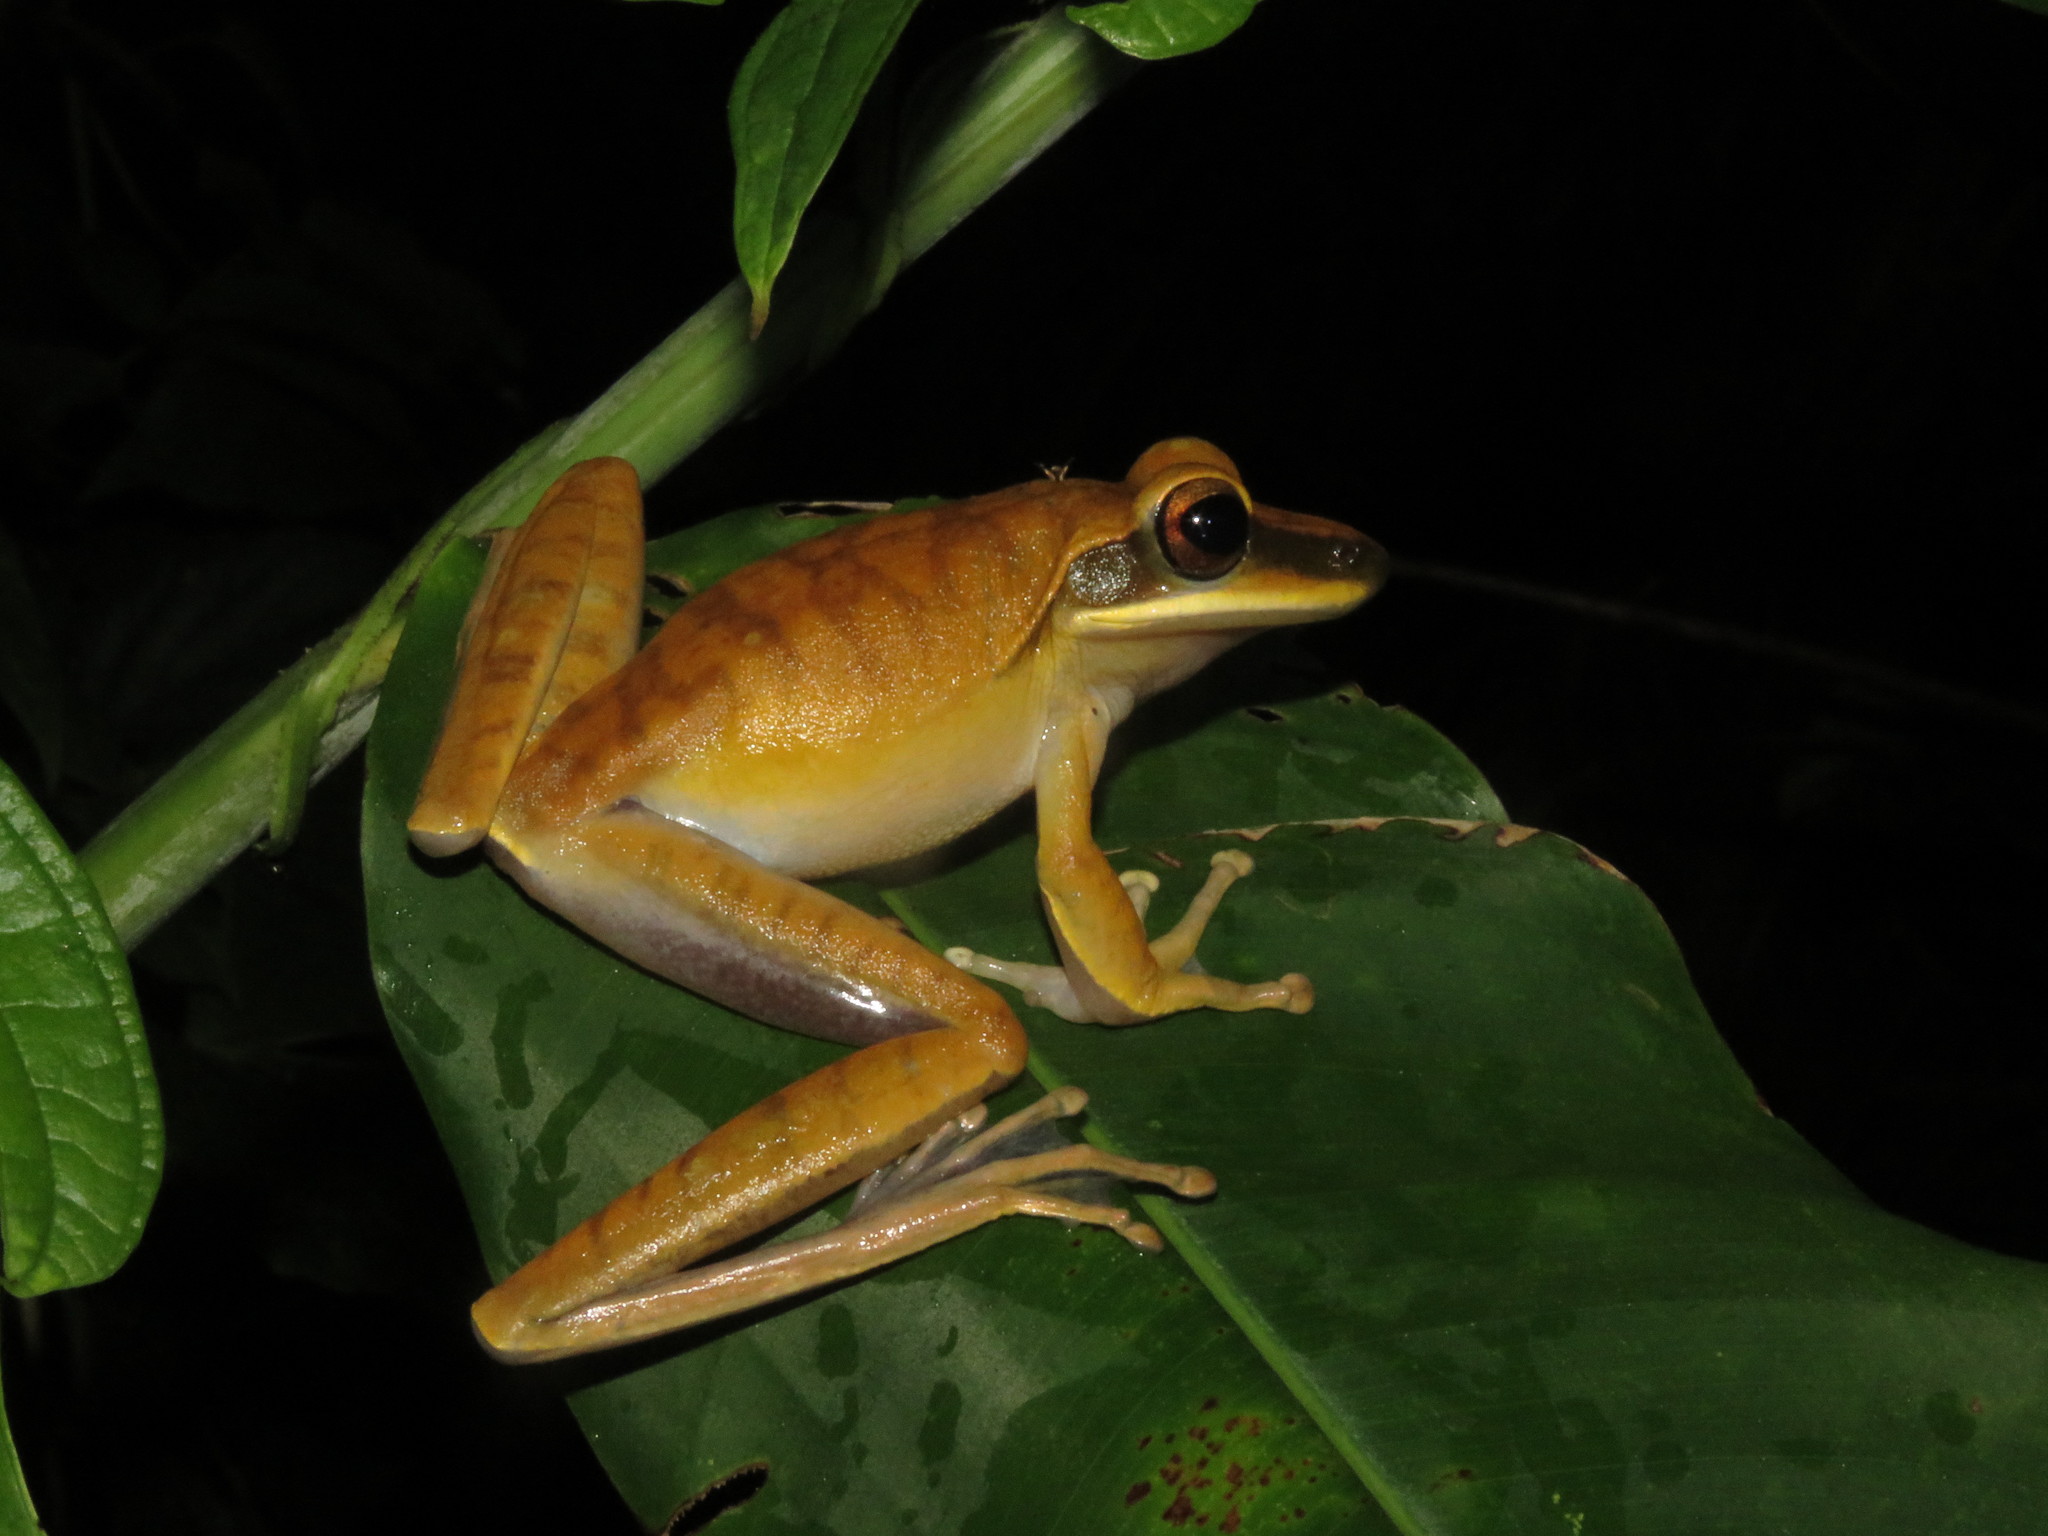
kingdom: Animalia
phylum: Chordata
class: Amphibia
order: Anura
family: Hylidae
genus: Boana
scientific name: Boana lanciformis
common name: Rana lanceolada commún
